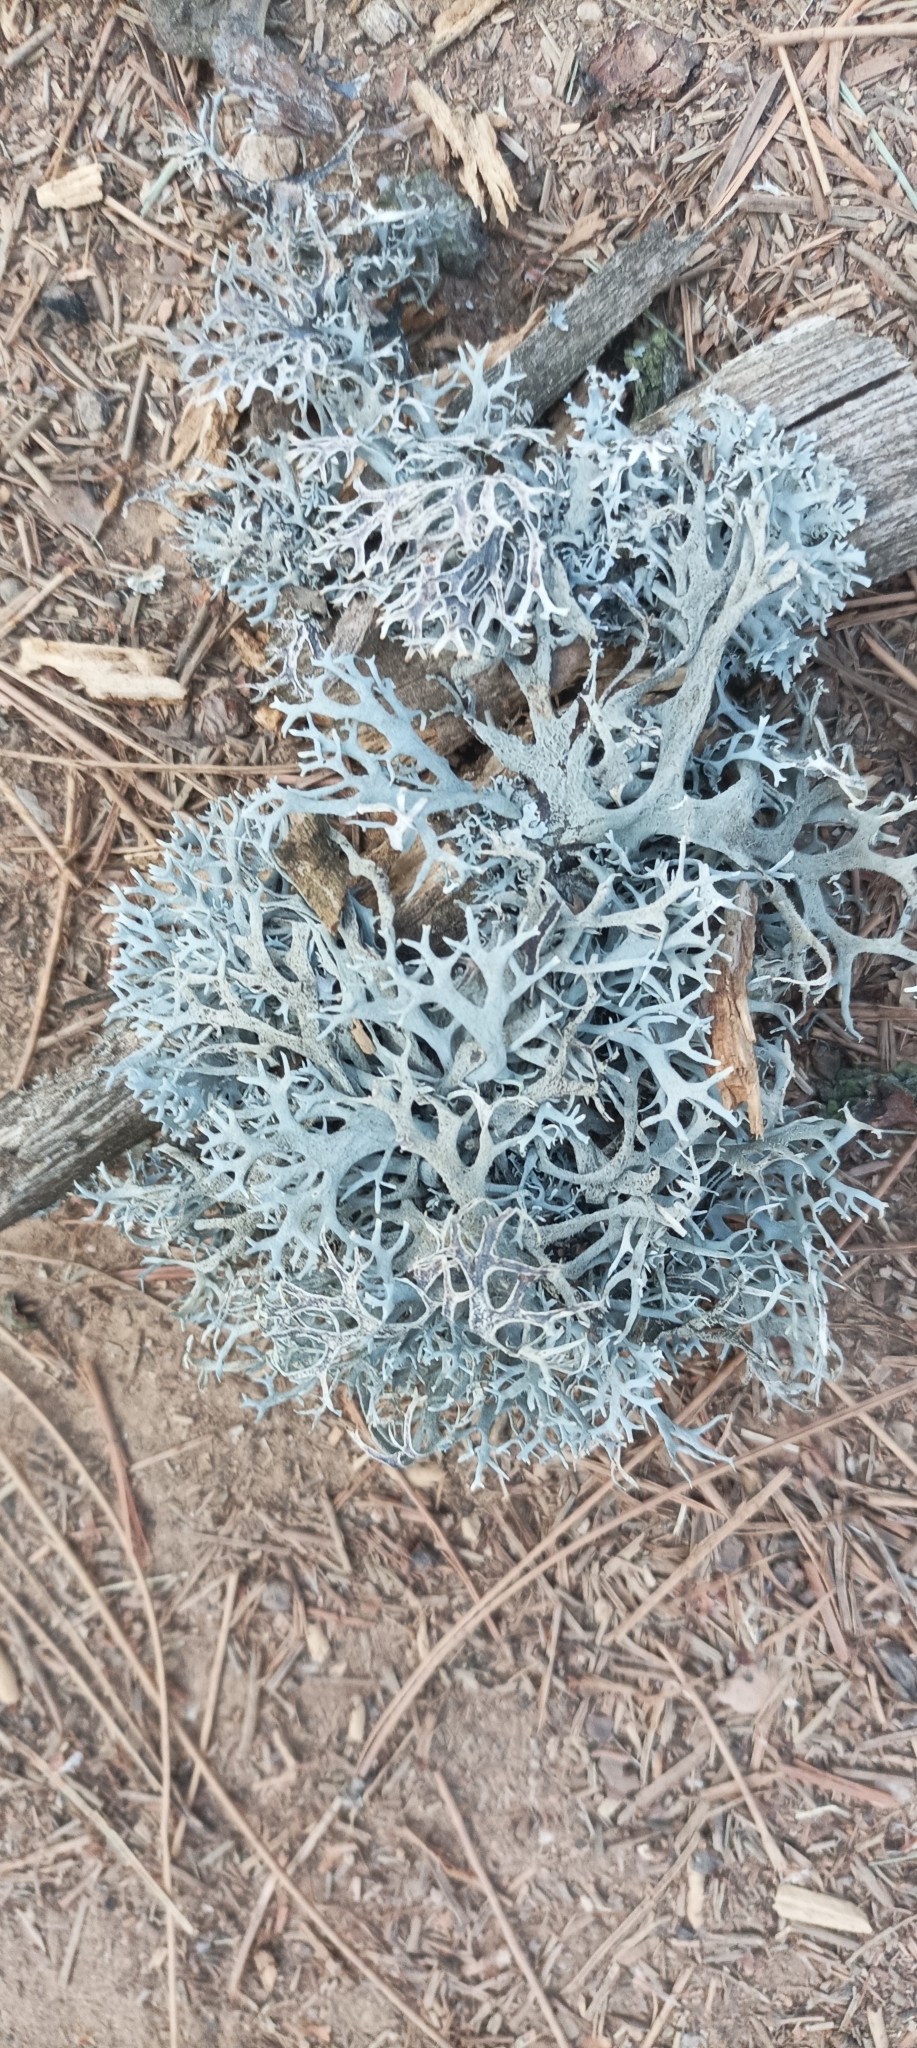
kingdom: Fungi
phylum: Ascomycota
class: Lecanoromycetes
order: Lecanorales
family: Parmeliaceae
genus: Pseudevernia
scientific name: Pseudevernia furfuracea
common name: Tree moss
